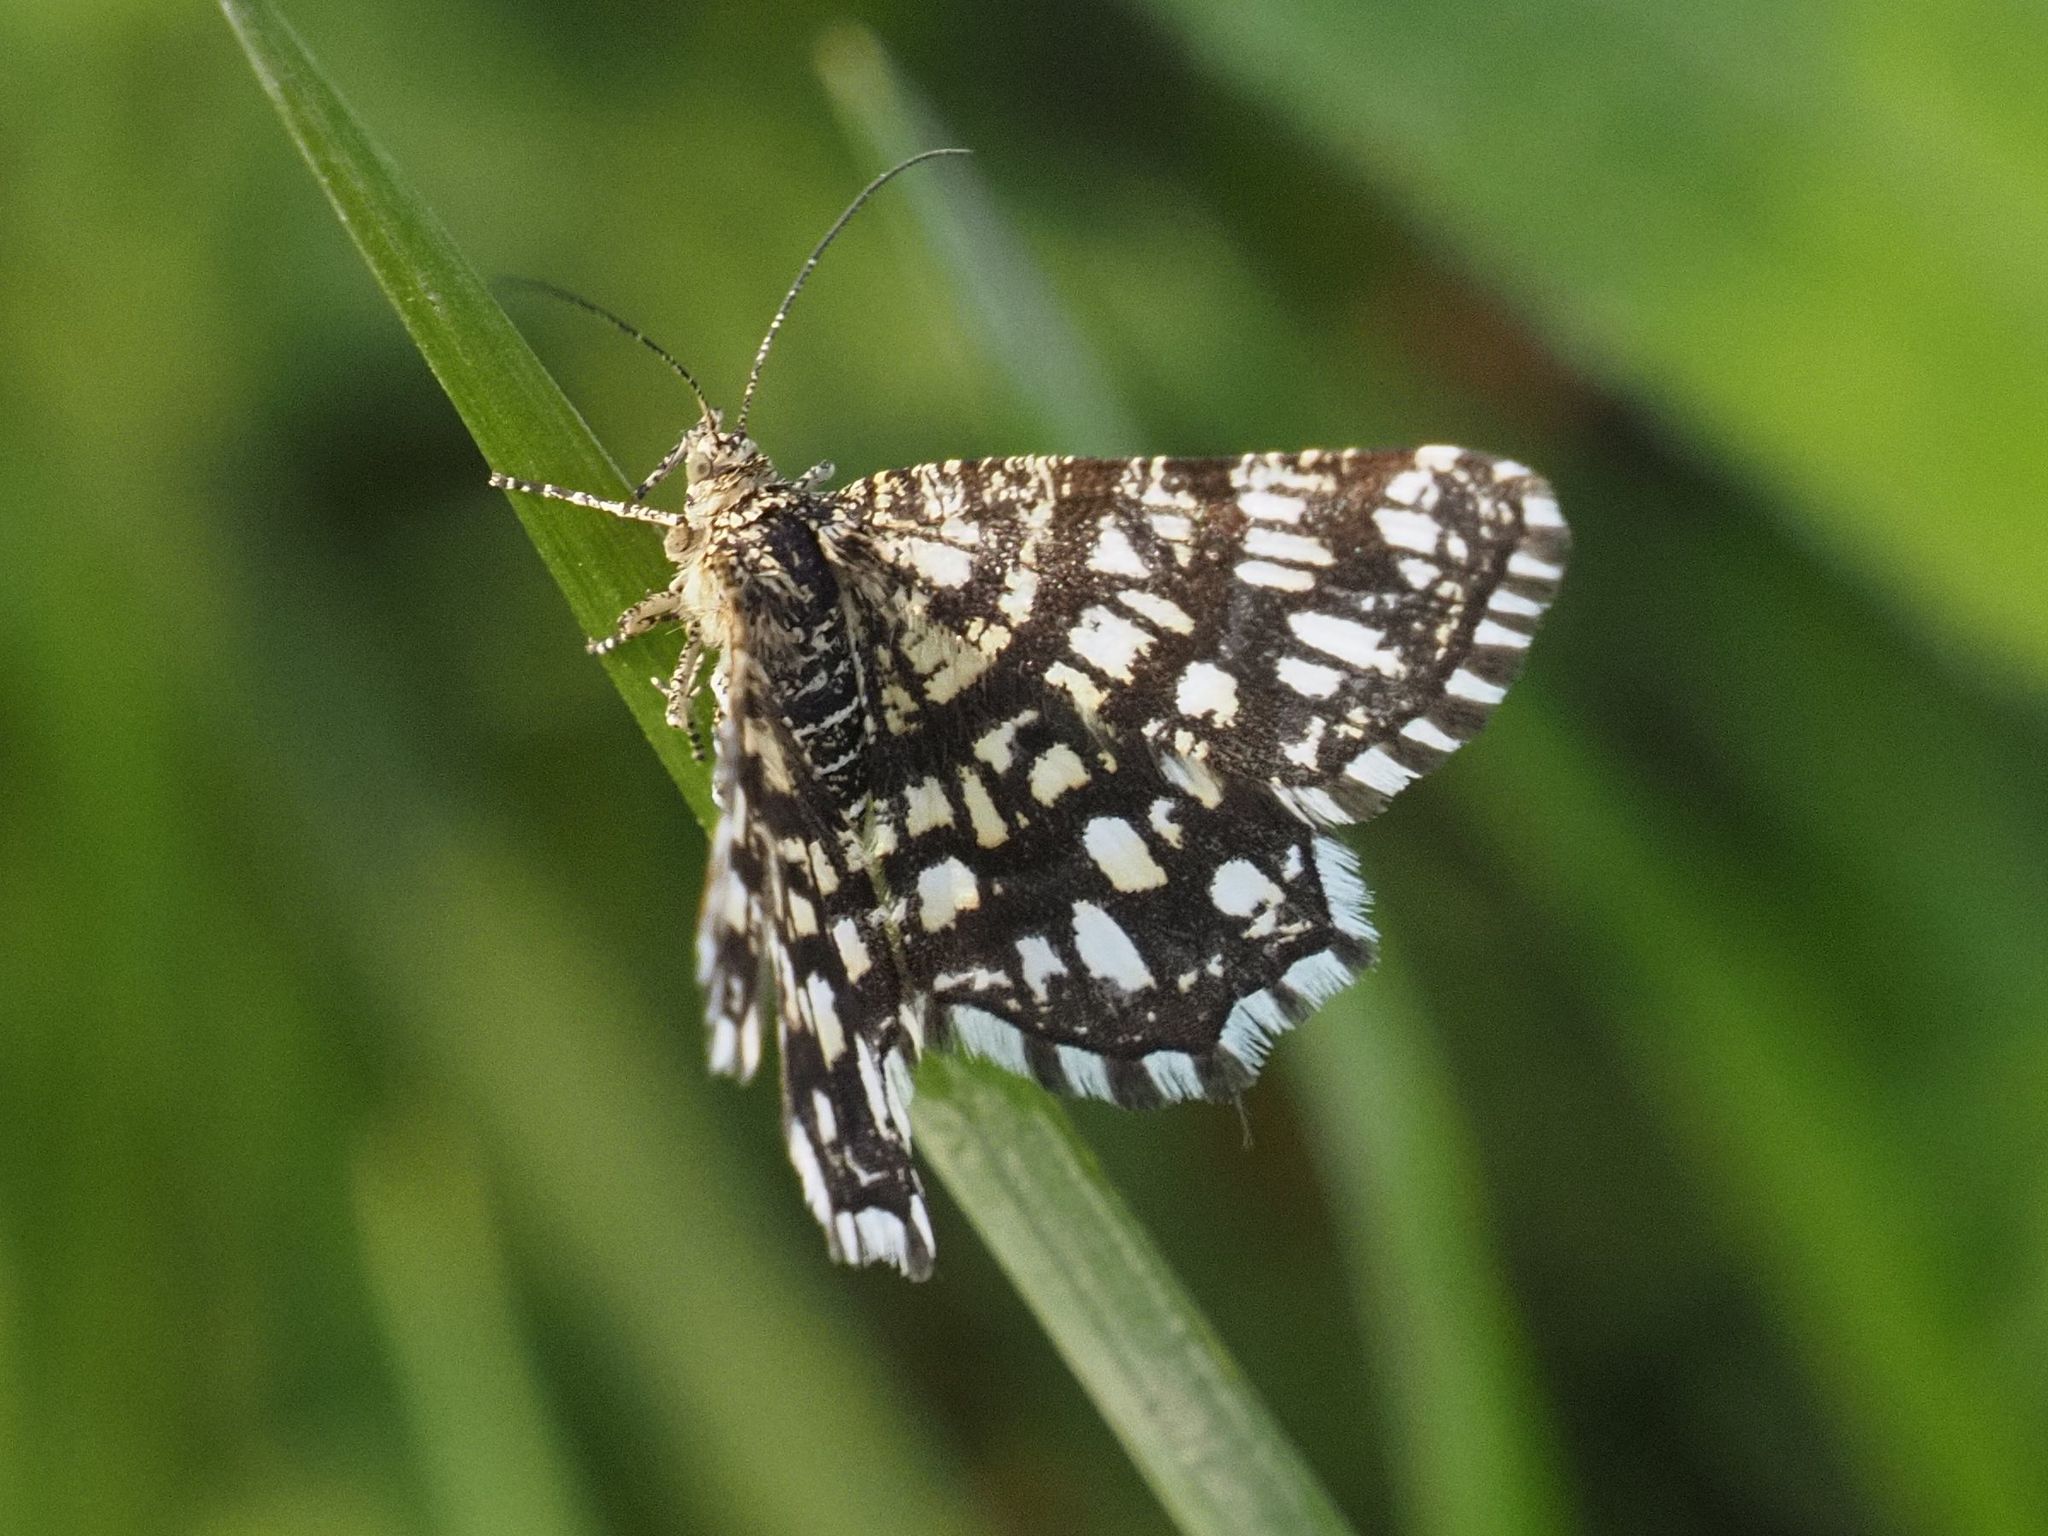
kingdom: Animalia
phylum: Arthropoda
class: Insecta
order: Lepidoptera
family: Geometridae
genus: Chiasmia
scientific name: Chiasmia clathrata
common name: Latticed heath
